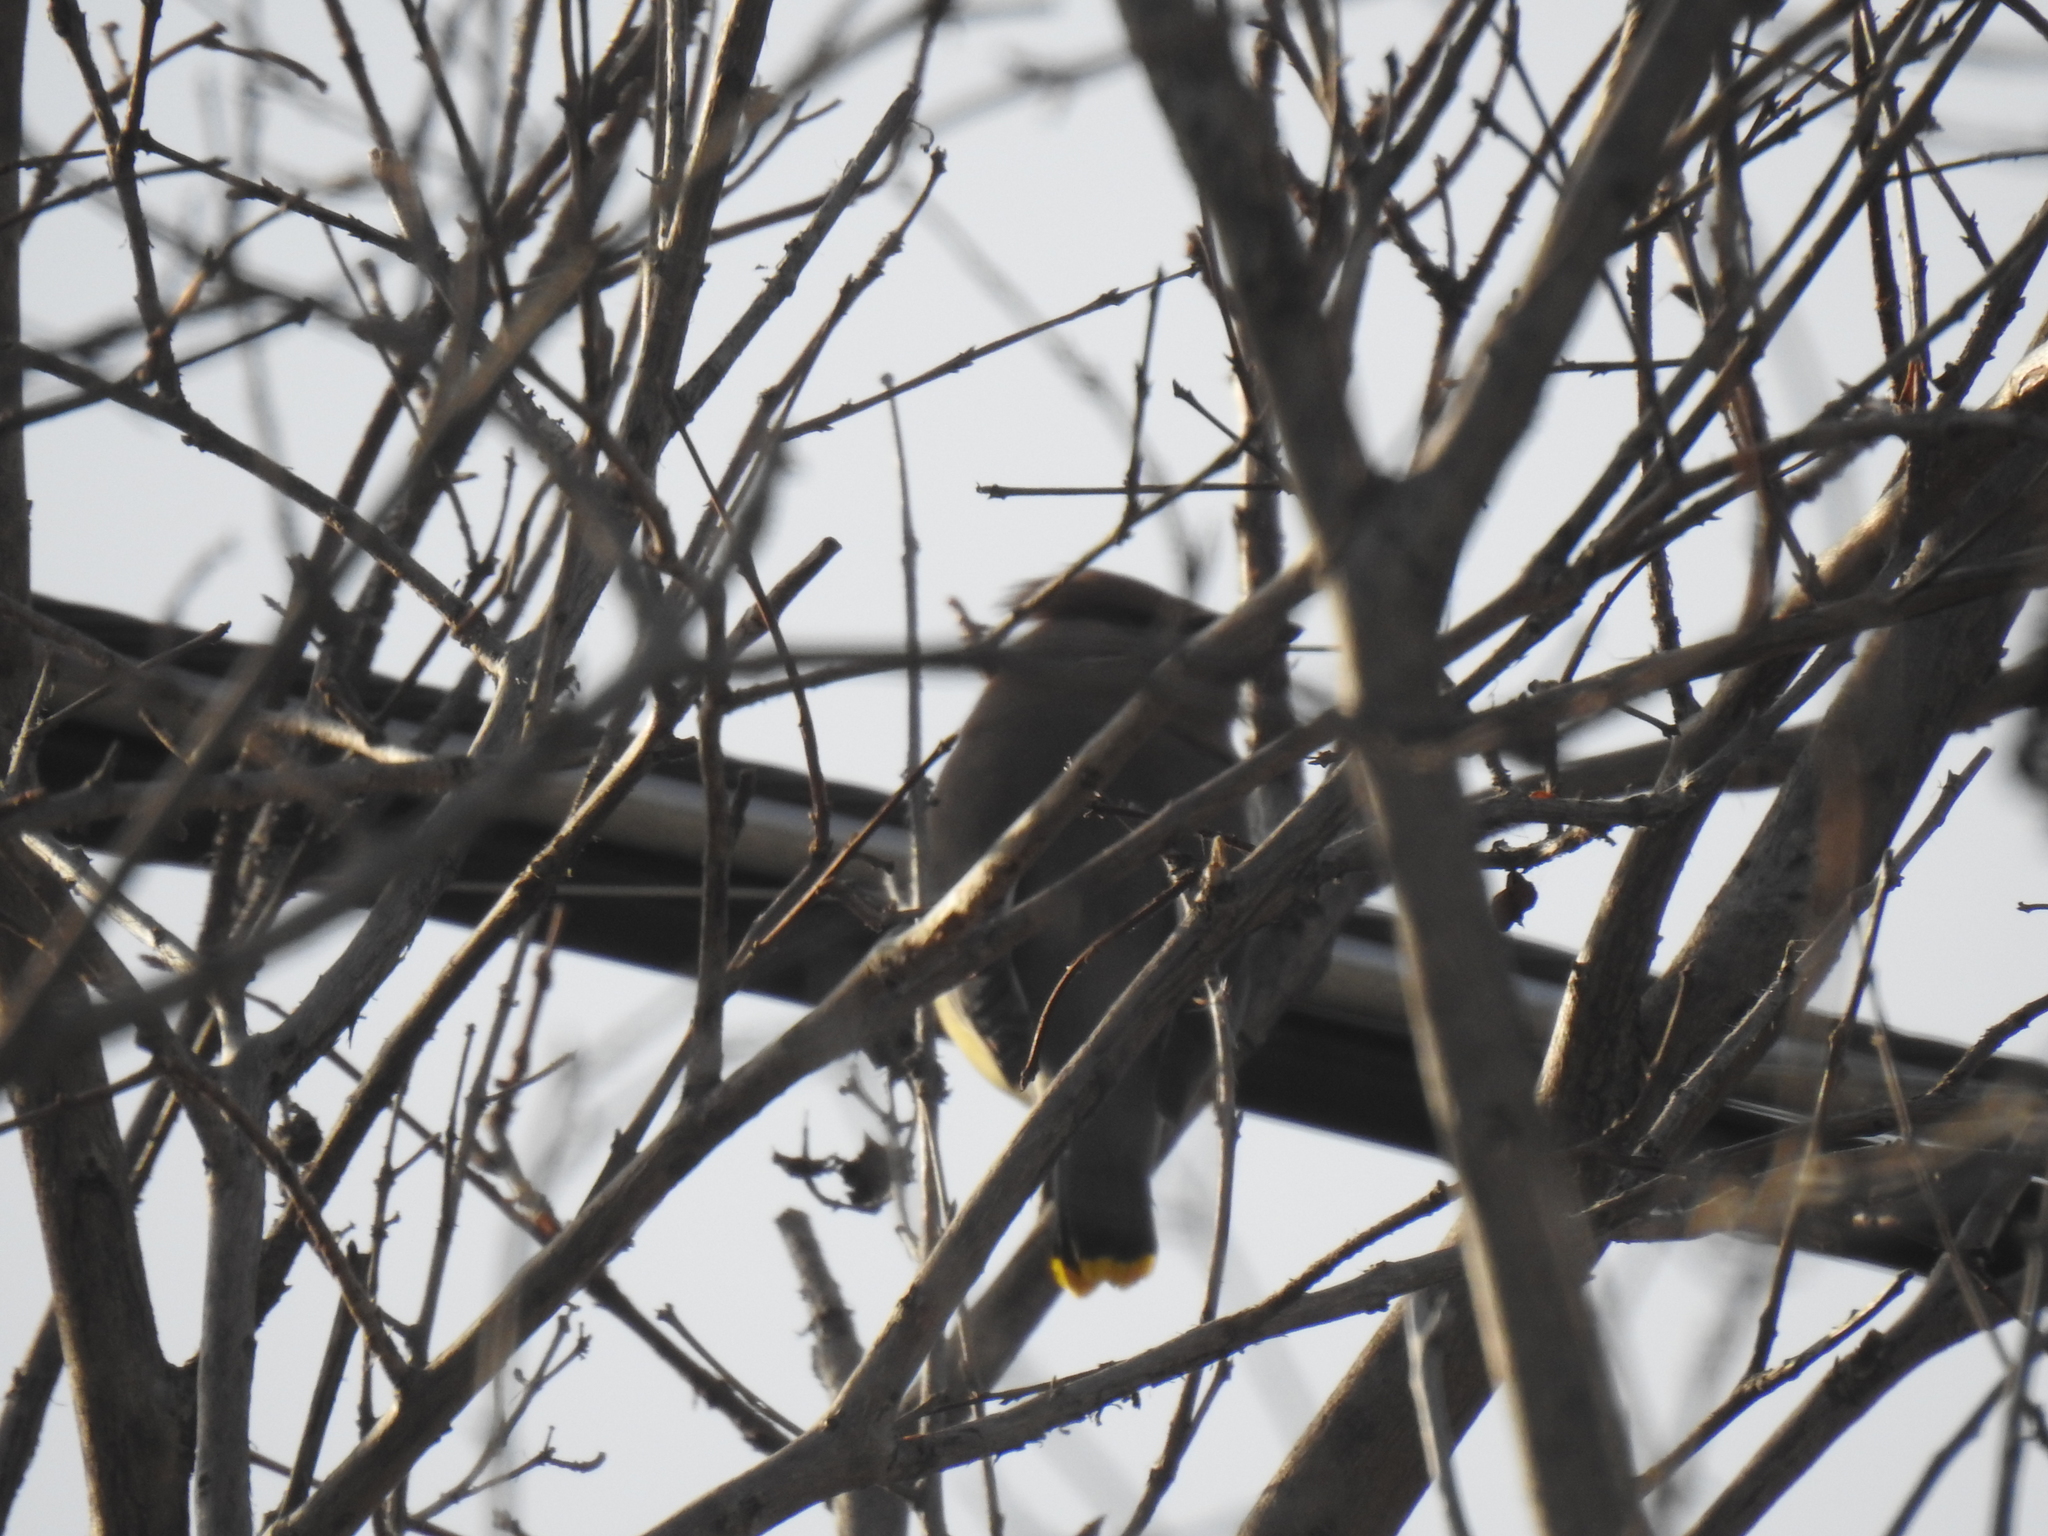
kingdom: Animalia
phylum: Chordata
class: Aves
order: Passeriformes
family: Bombycillidae
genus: Bombycilla
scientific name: Bombycilla cedrorum
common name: Cedar waxwing
